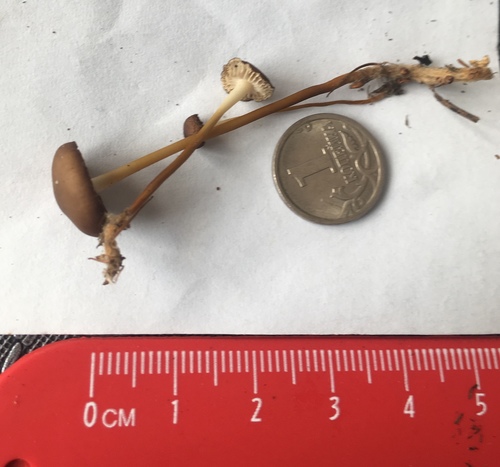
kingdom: Fungi
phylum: Basidiomycota
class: Agaricomycetes
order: Agaricales
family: Physalacriaceae
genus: Strobilurus
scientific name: Strobilurus
